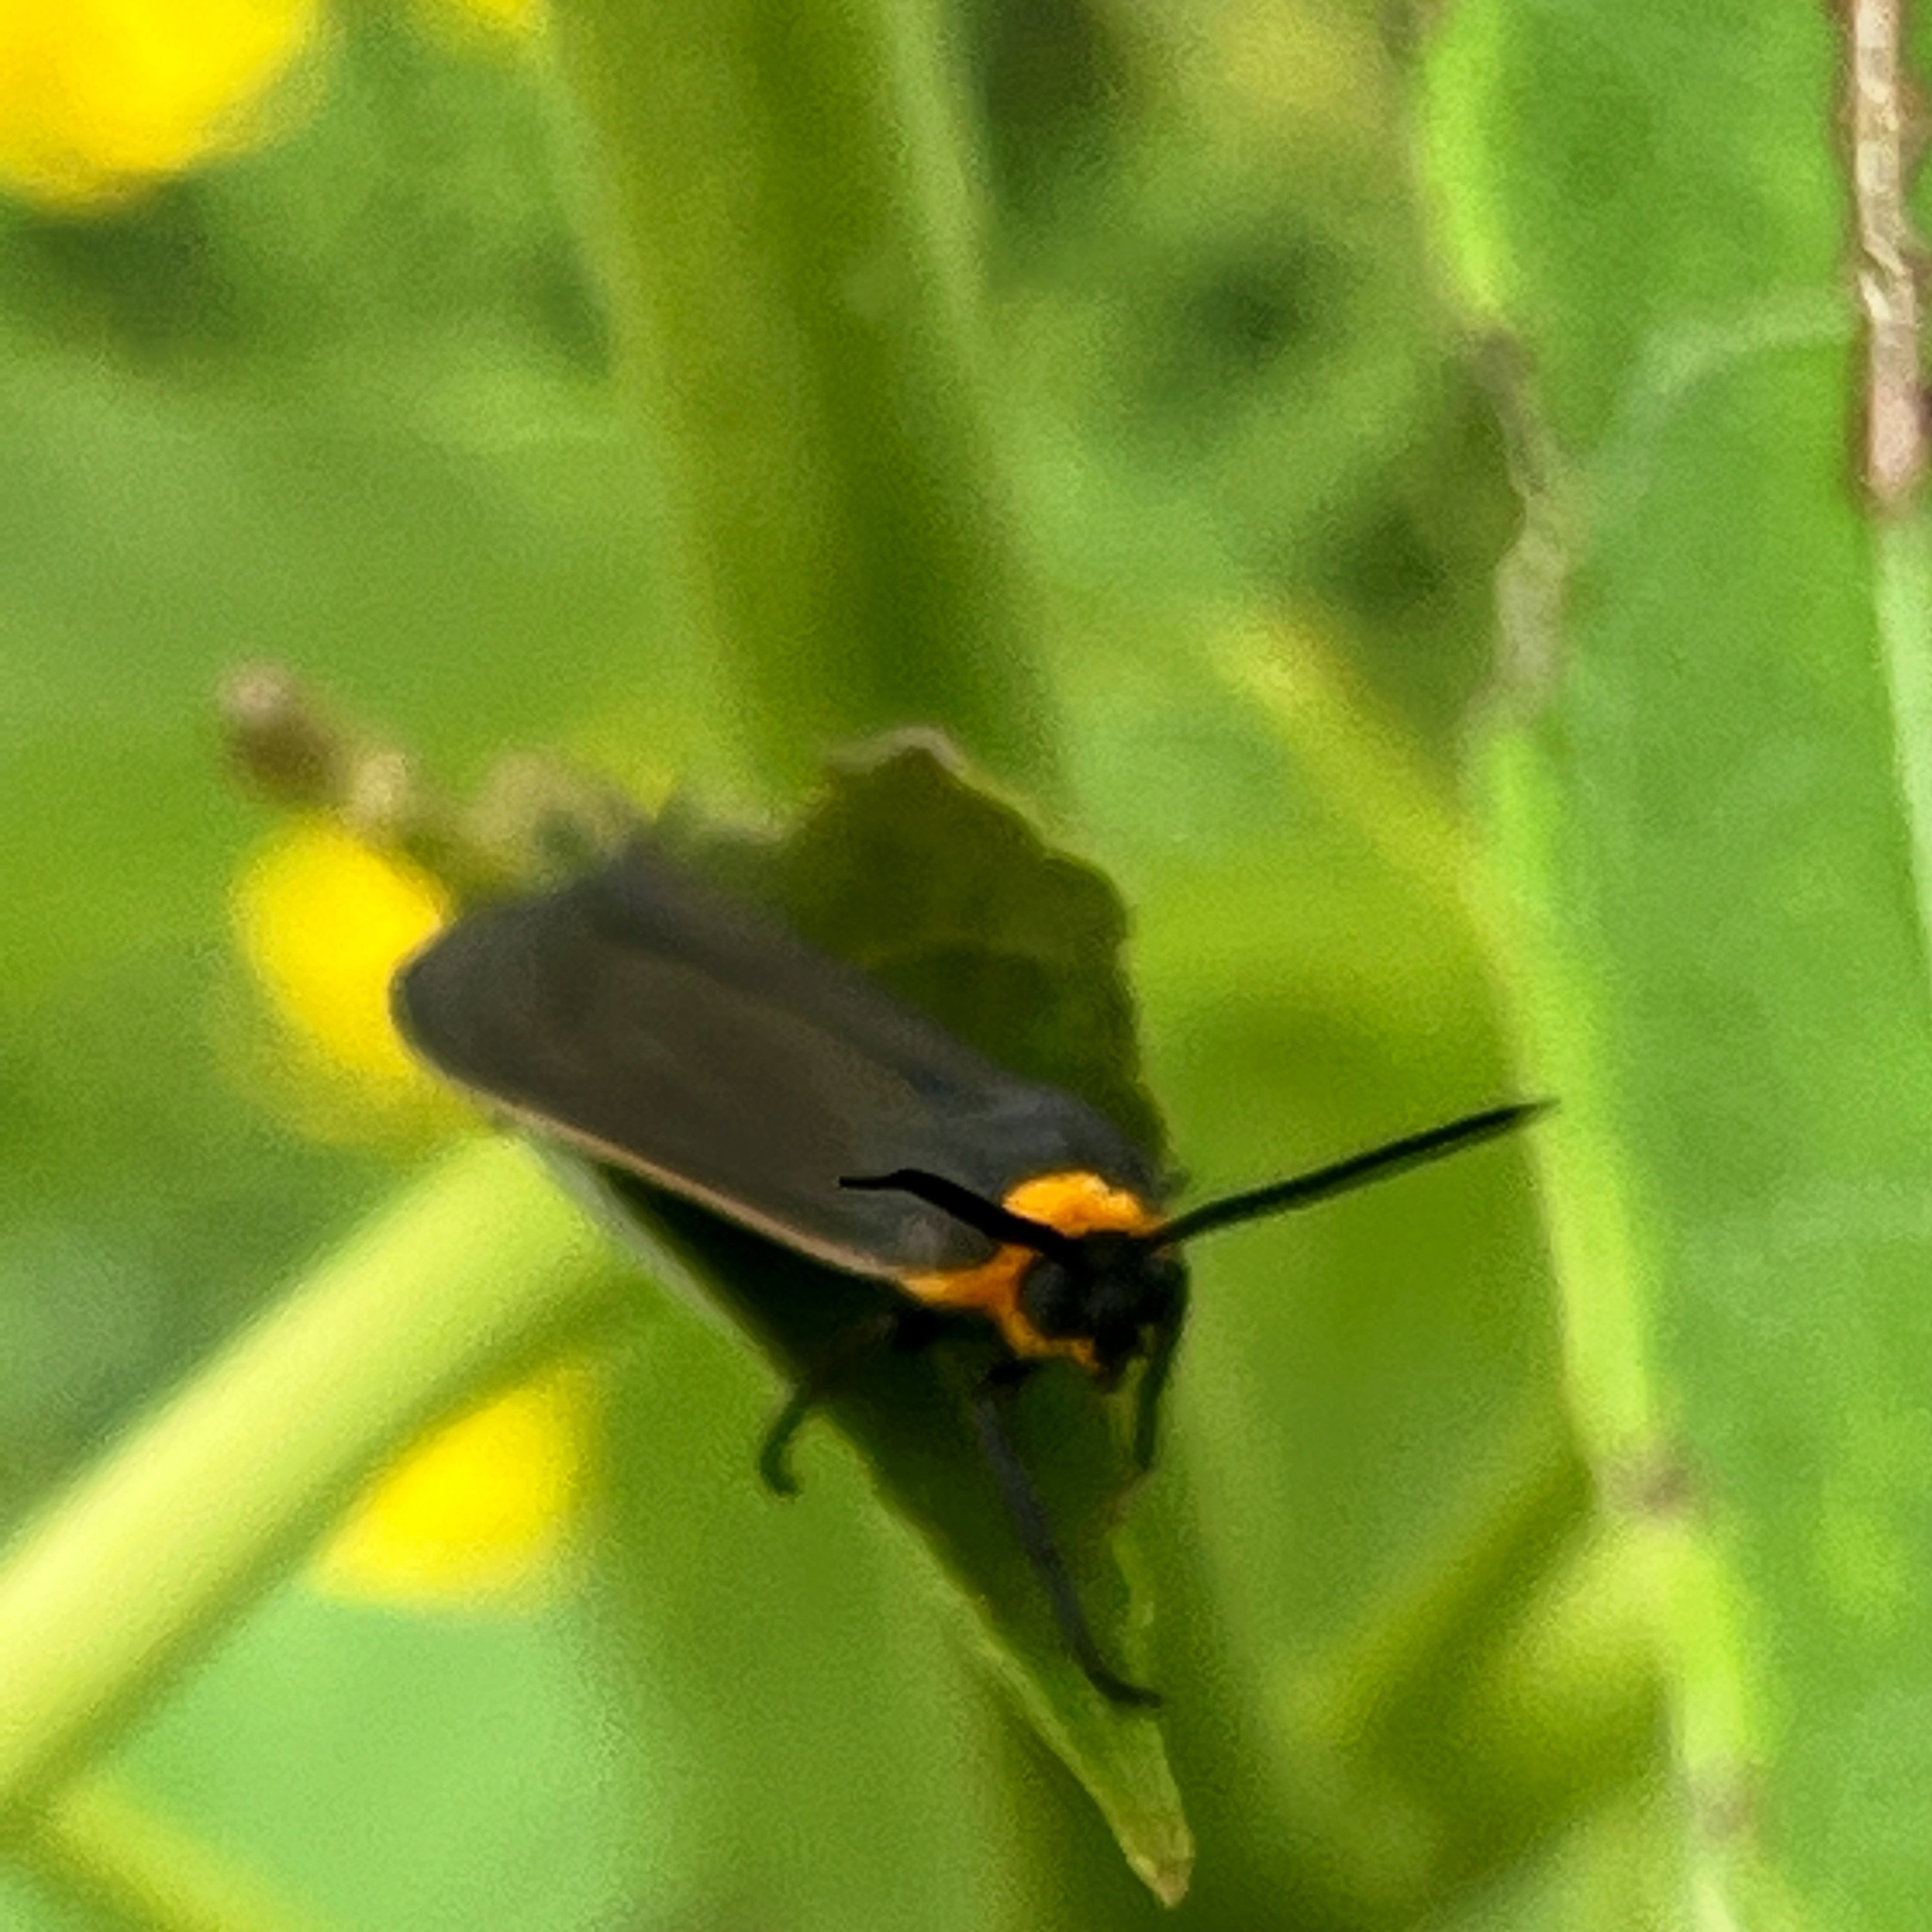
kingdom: Animalia
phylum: Arthropoda
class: Insecta
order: Lepidoptera
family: Erebidae
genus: Cisseps
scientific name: Cisseps fulvicollis
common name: Yellow-collared scape moth
